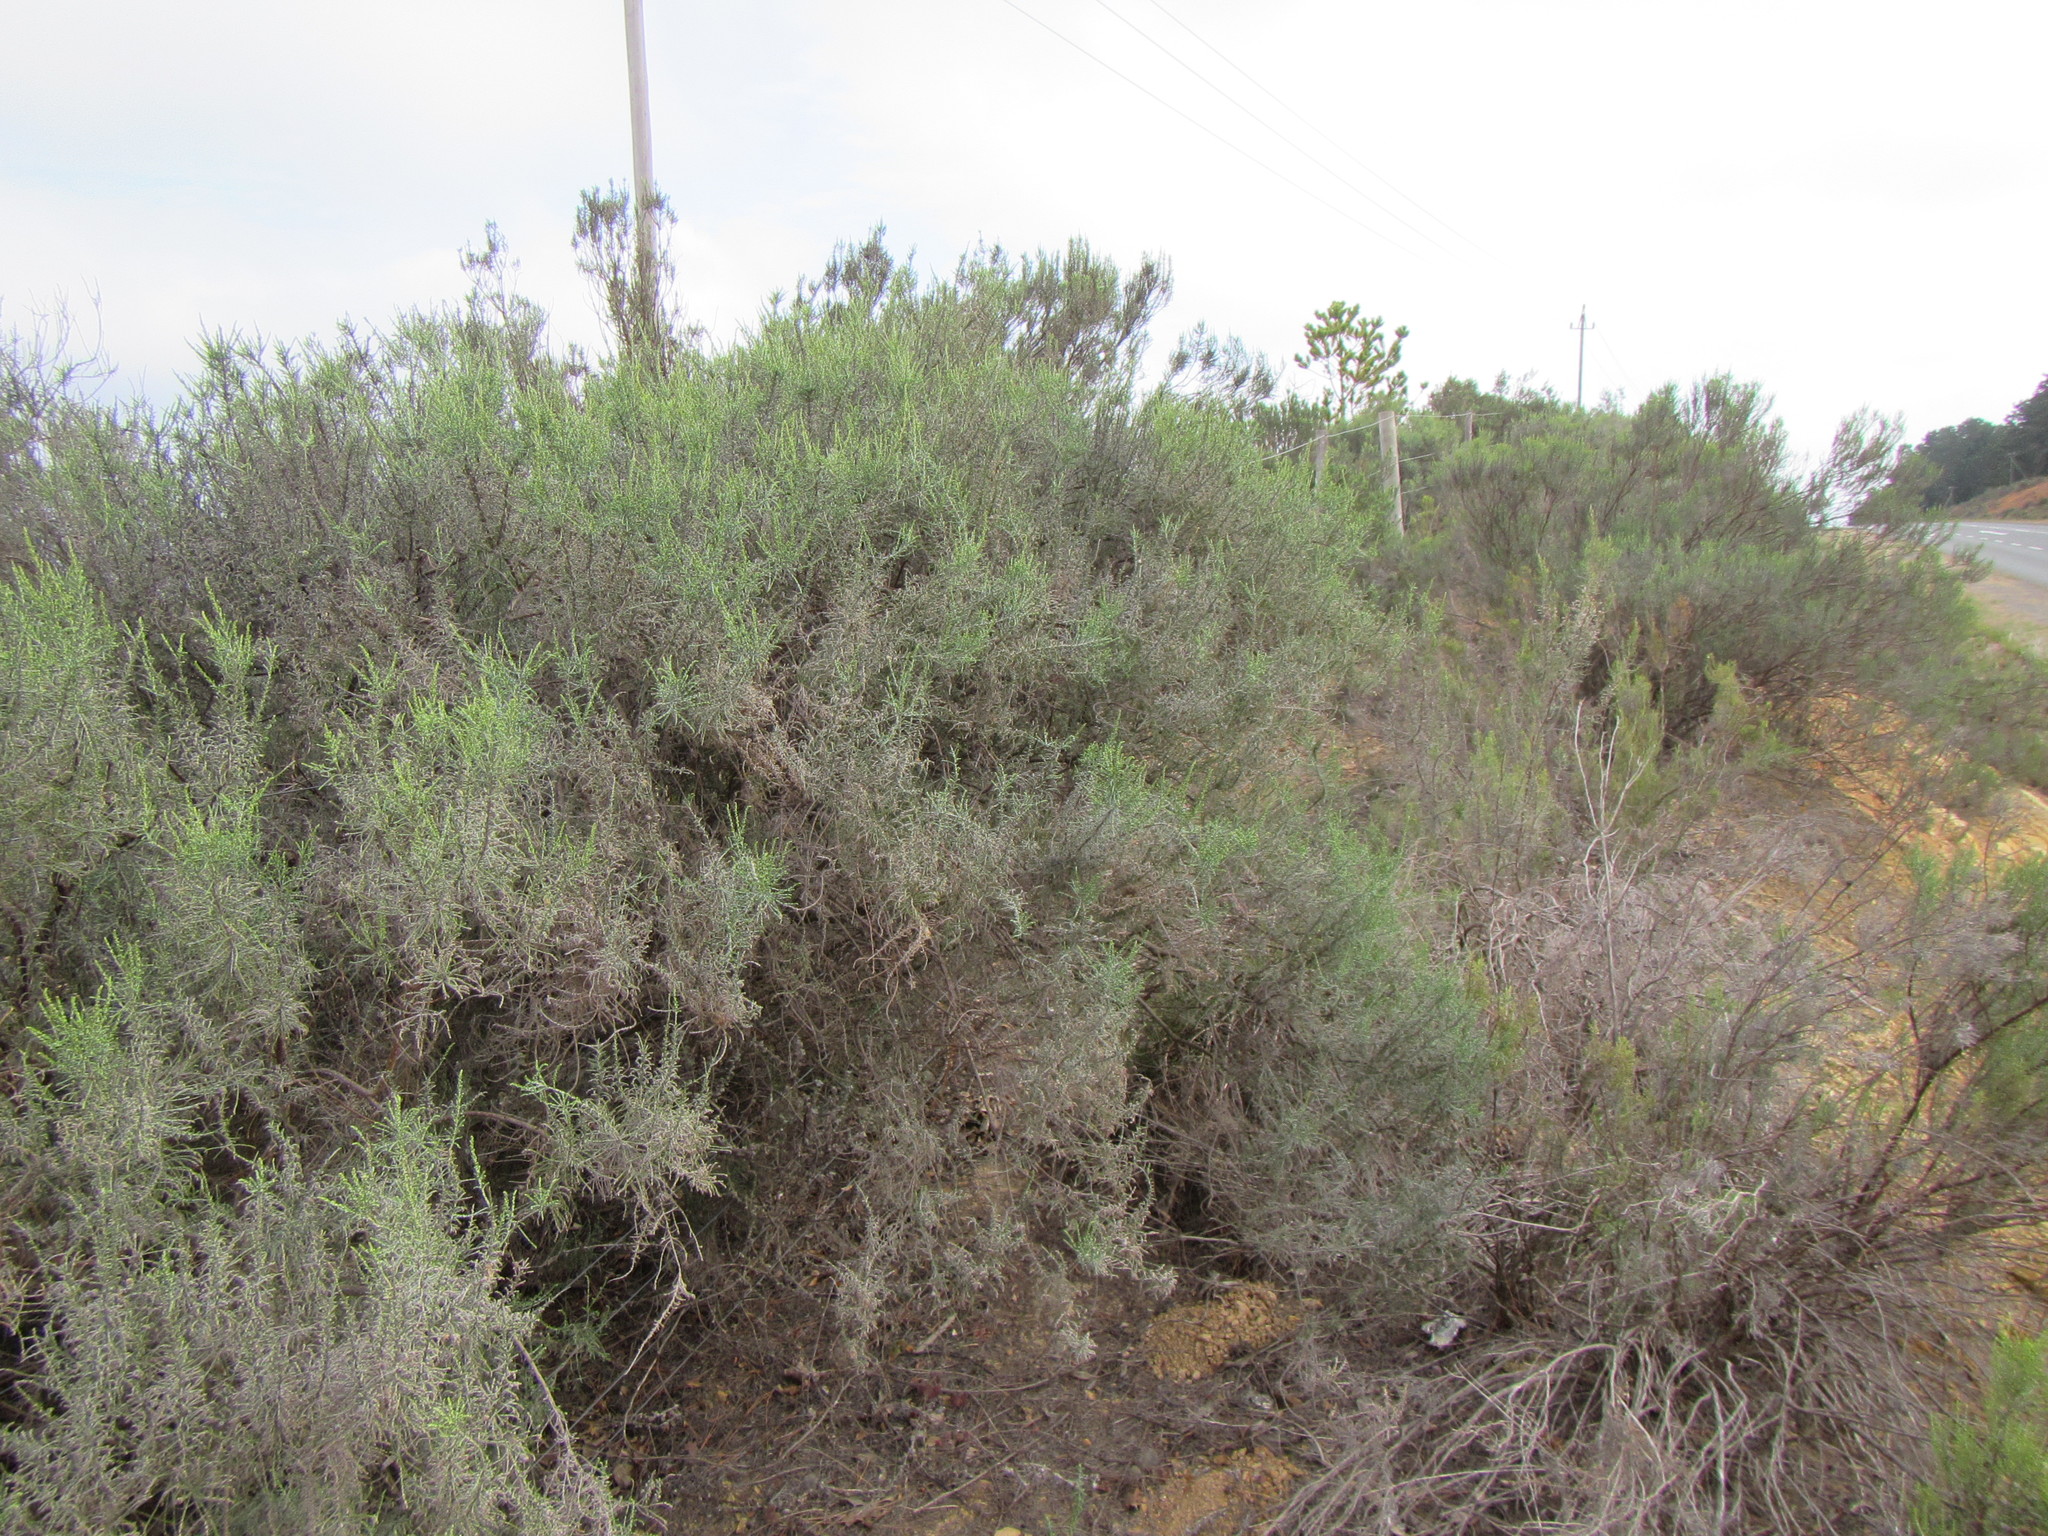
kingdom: Plantae
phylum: Tracheophyta
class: Magnoliopsida
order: Asterales
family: Asteraceae
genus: Dicerothamnus
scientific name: Dicerothamnus rhinocerotis
